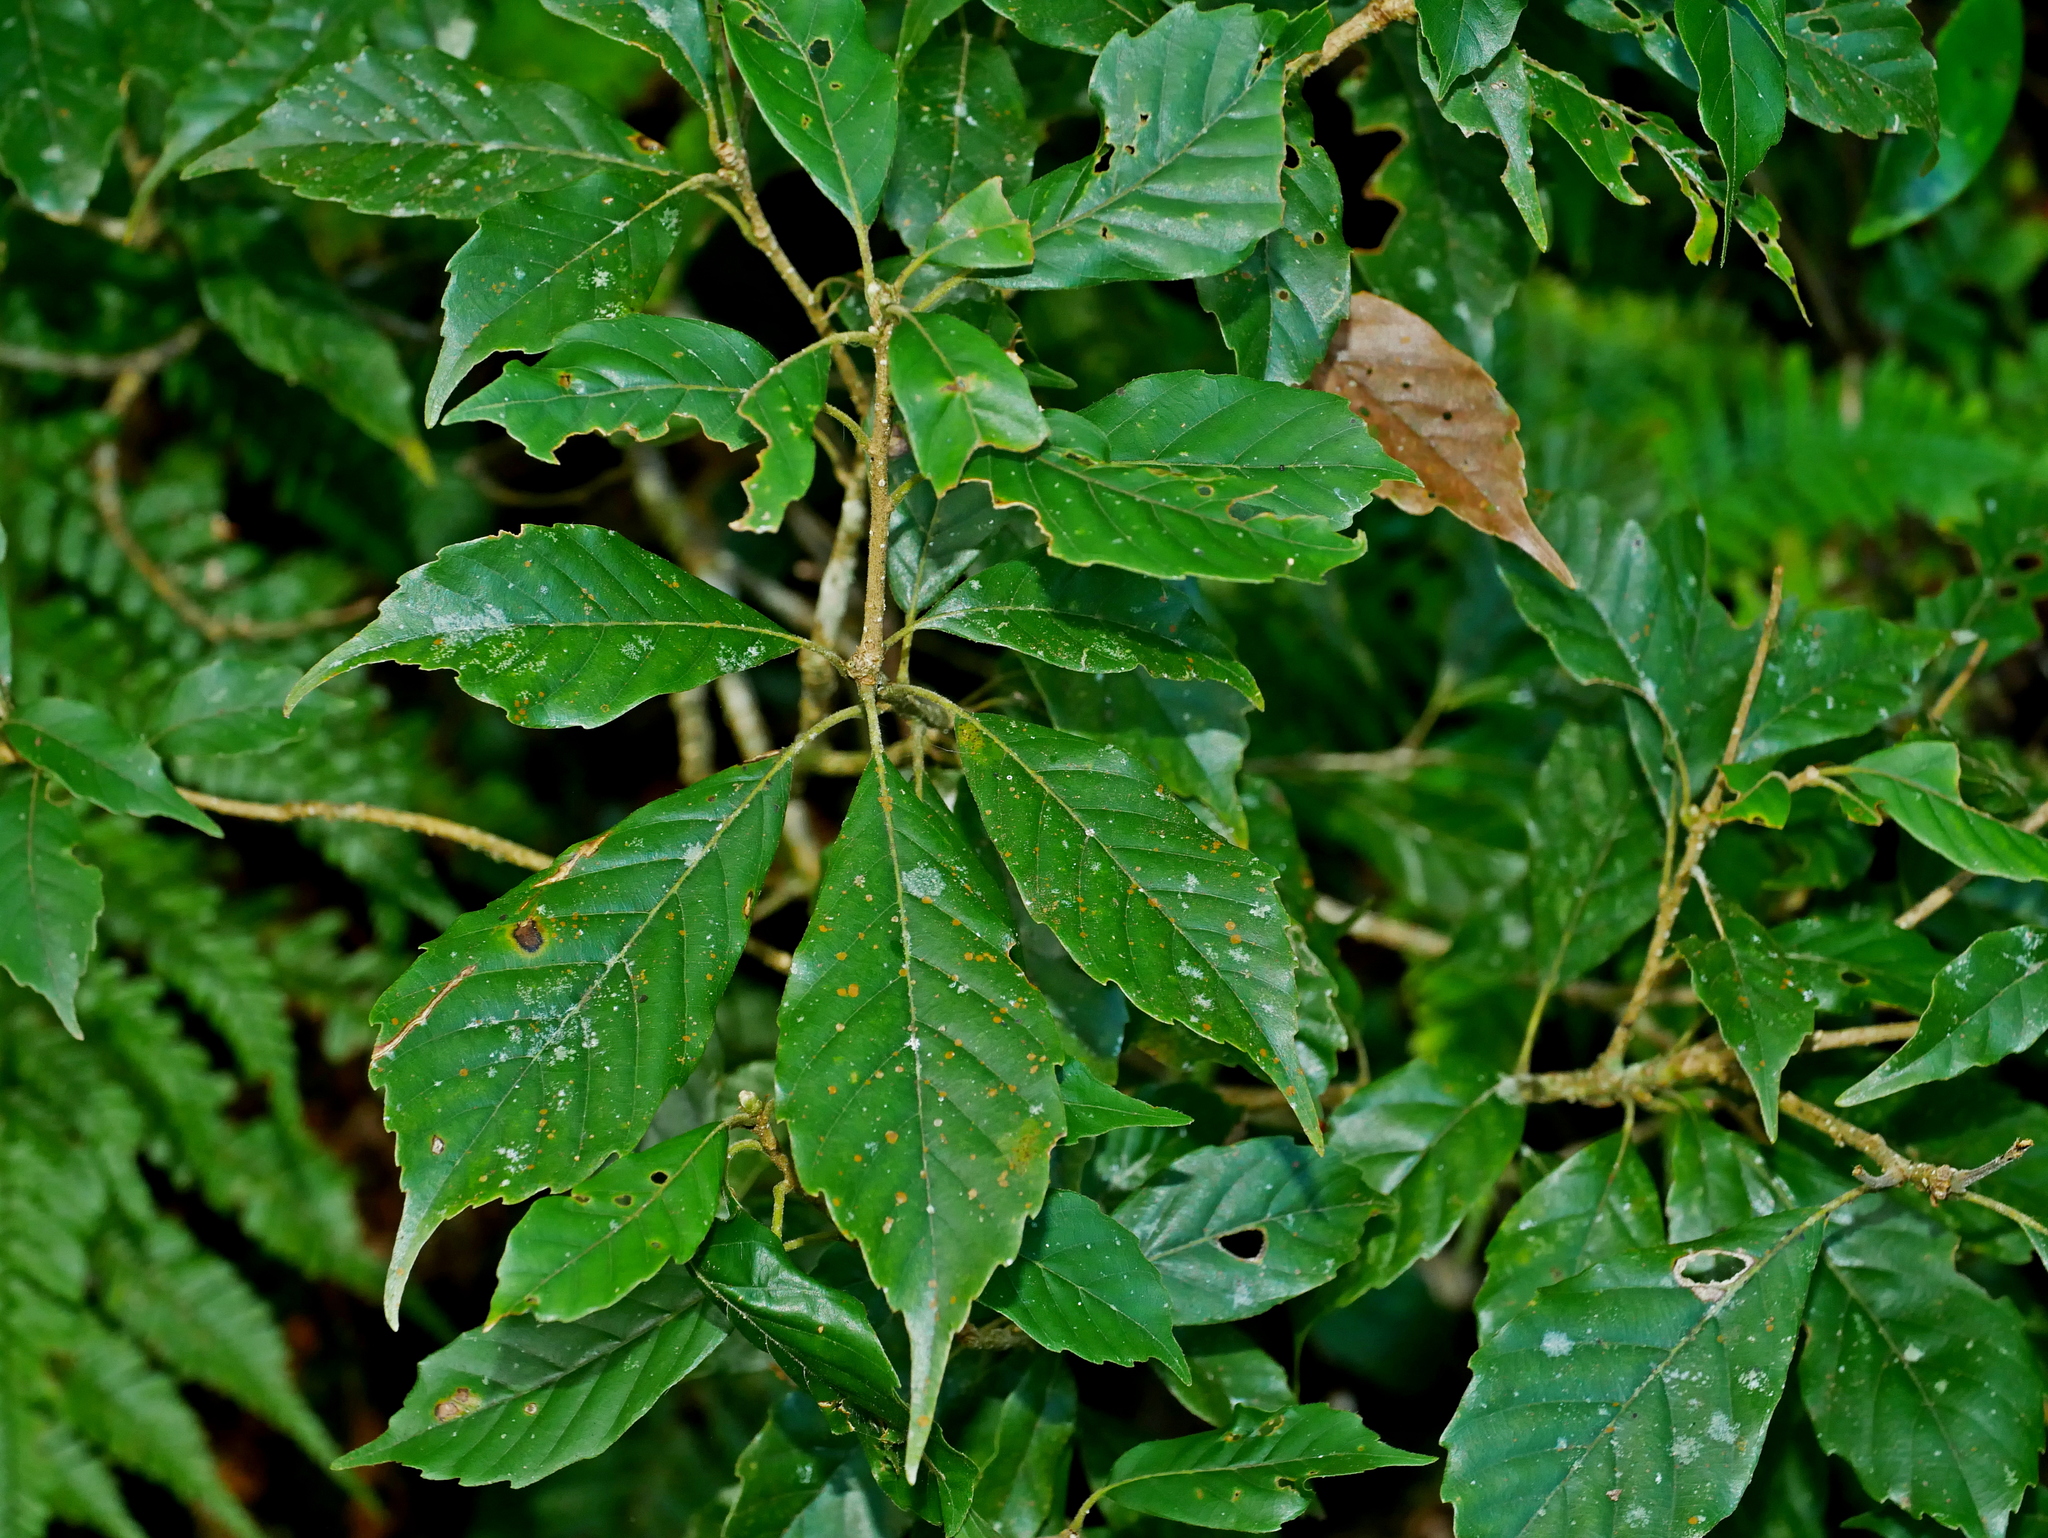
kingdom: Plantae
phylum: Tracheophyta
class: Magnoliopsida
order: Fagales
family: Fagaceae
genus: Lithocarpus
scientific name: Lithocarpus corneus
